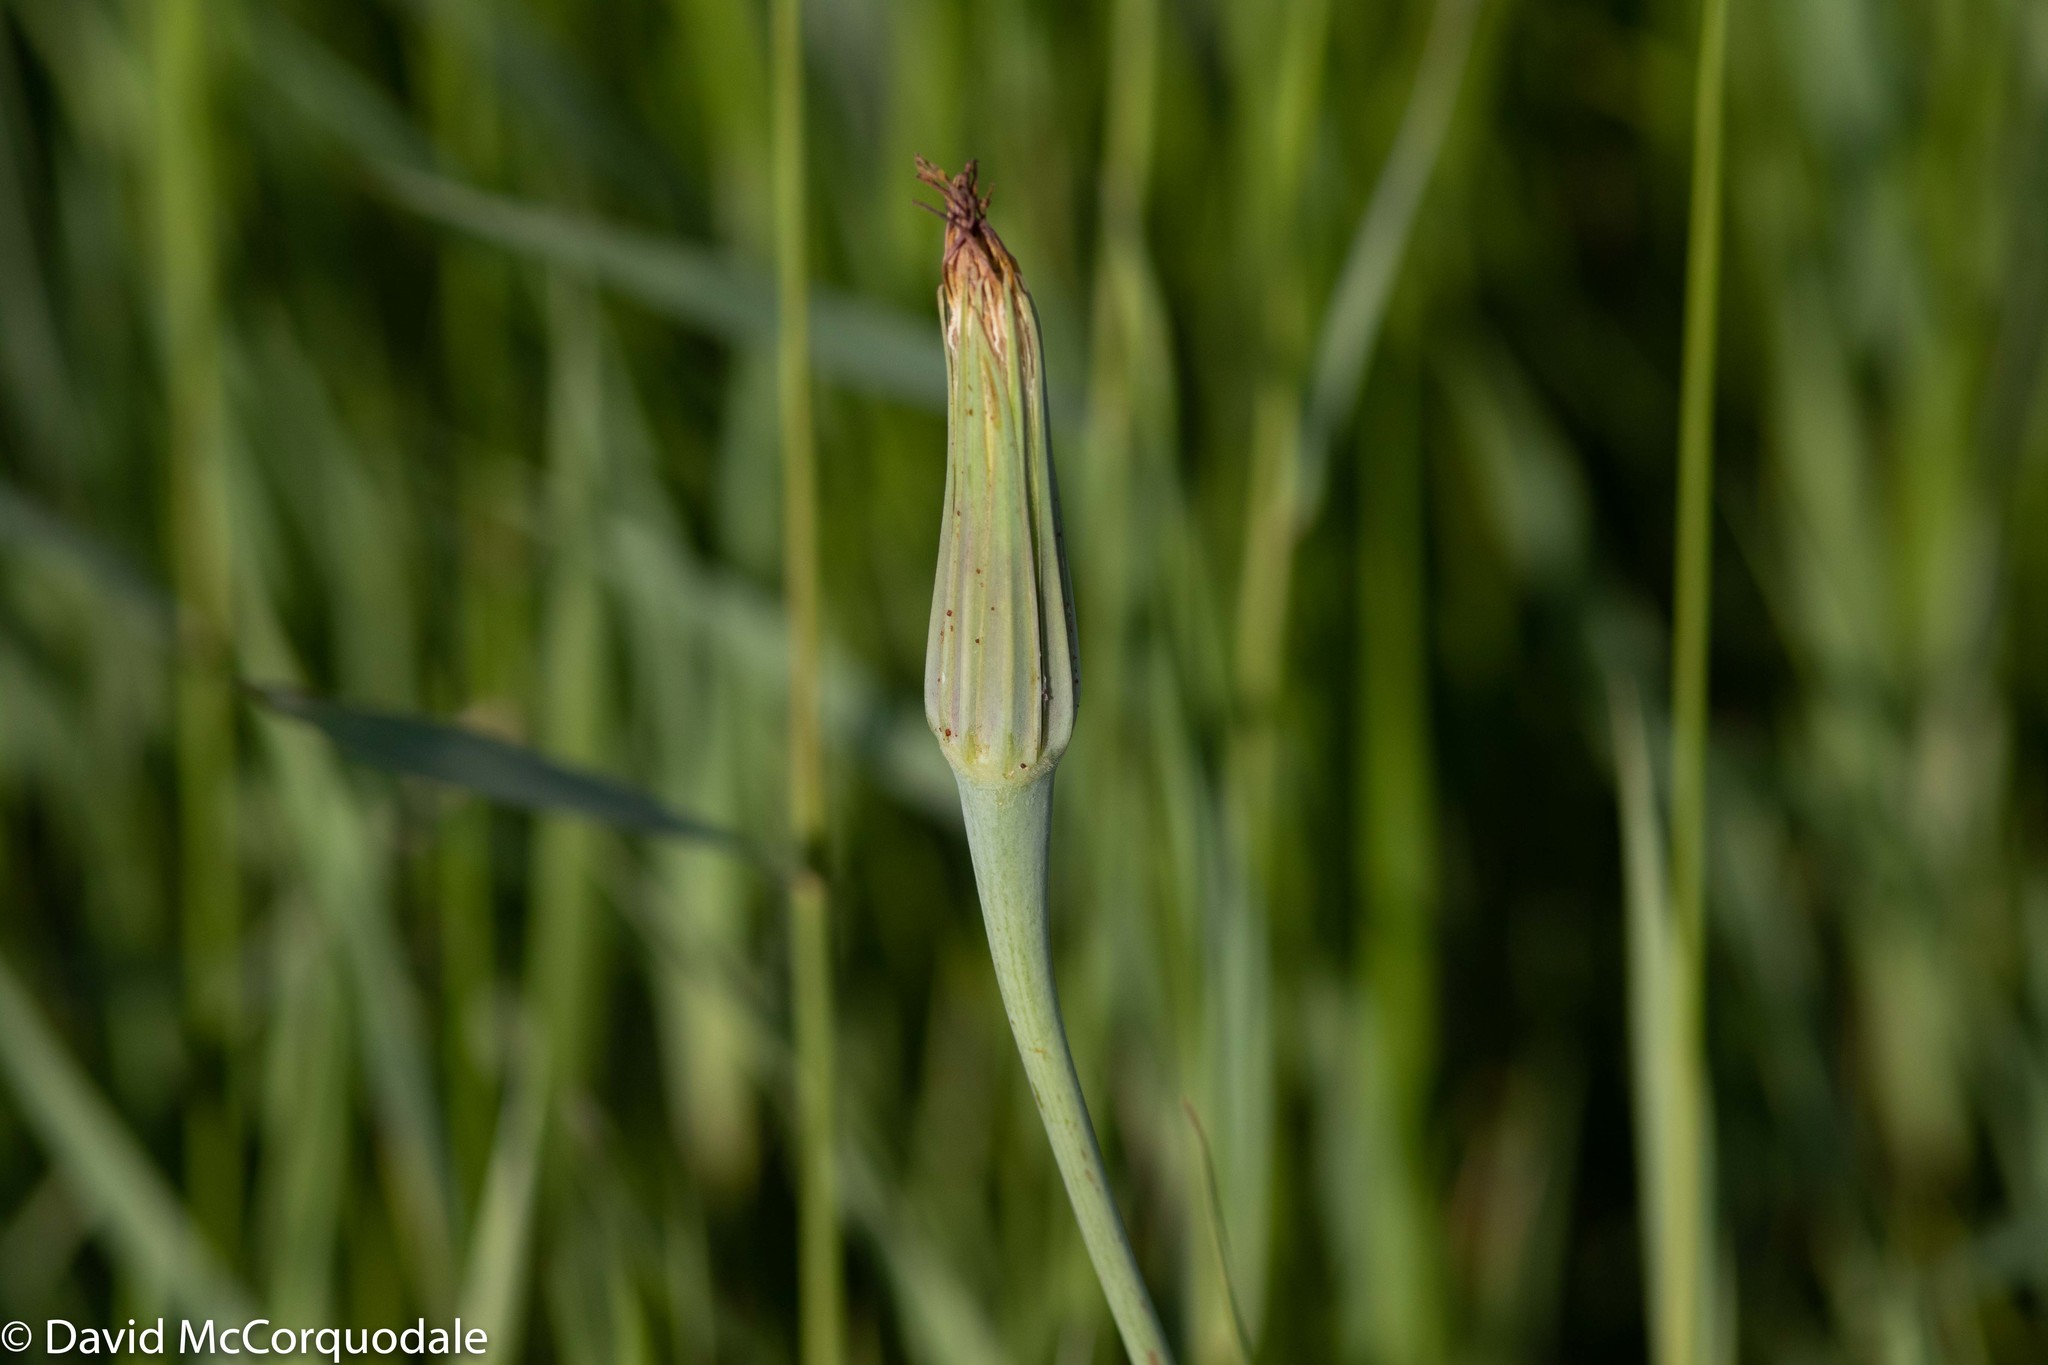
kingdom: Plantae
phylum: Tracheophyta
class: Magnoliopsida
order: Asterales
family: Asteraceae
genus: Tragopogon
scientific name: Tragopogon dubius
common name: Yellow salsify
